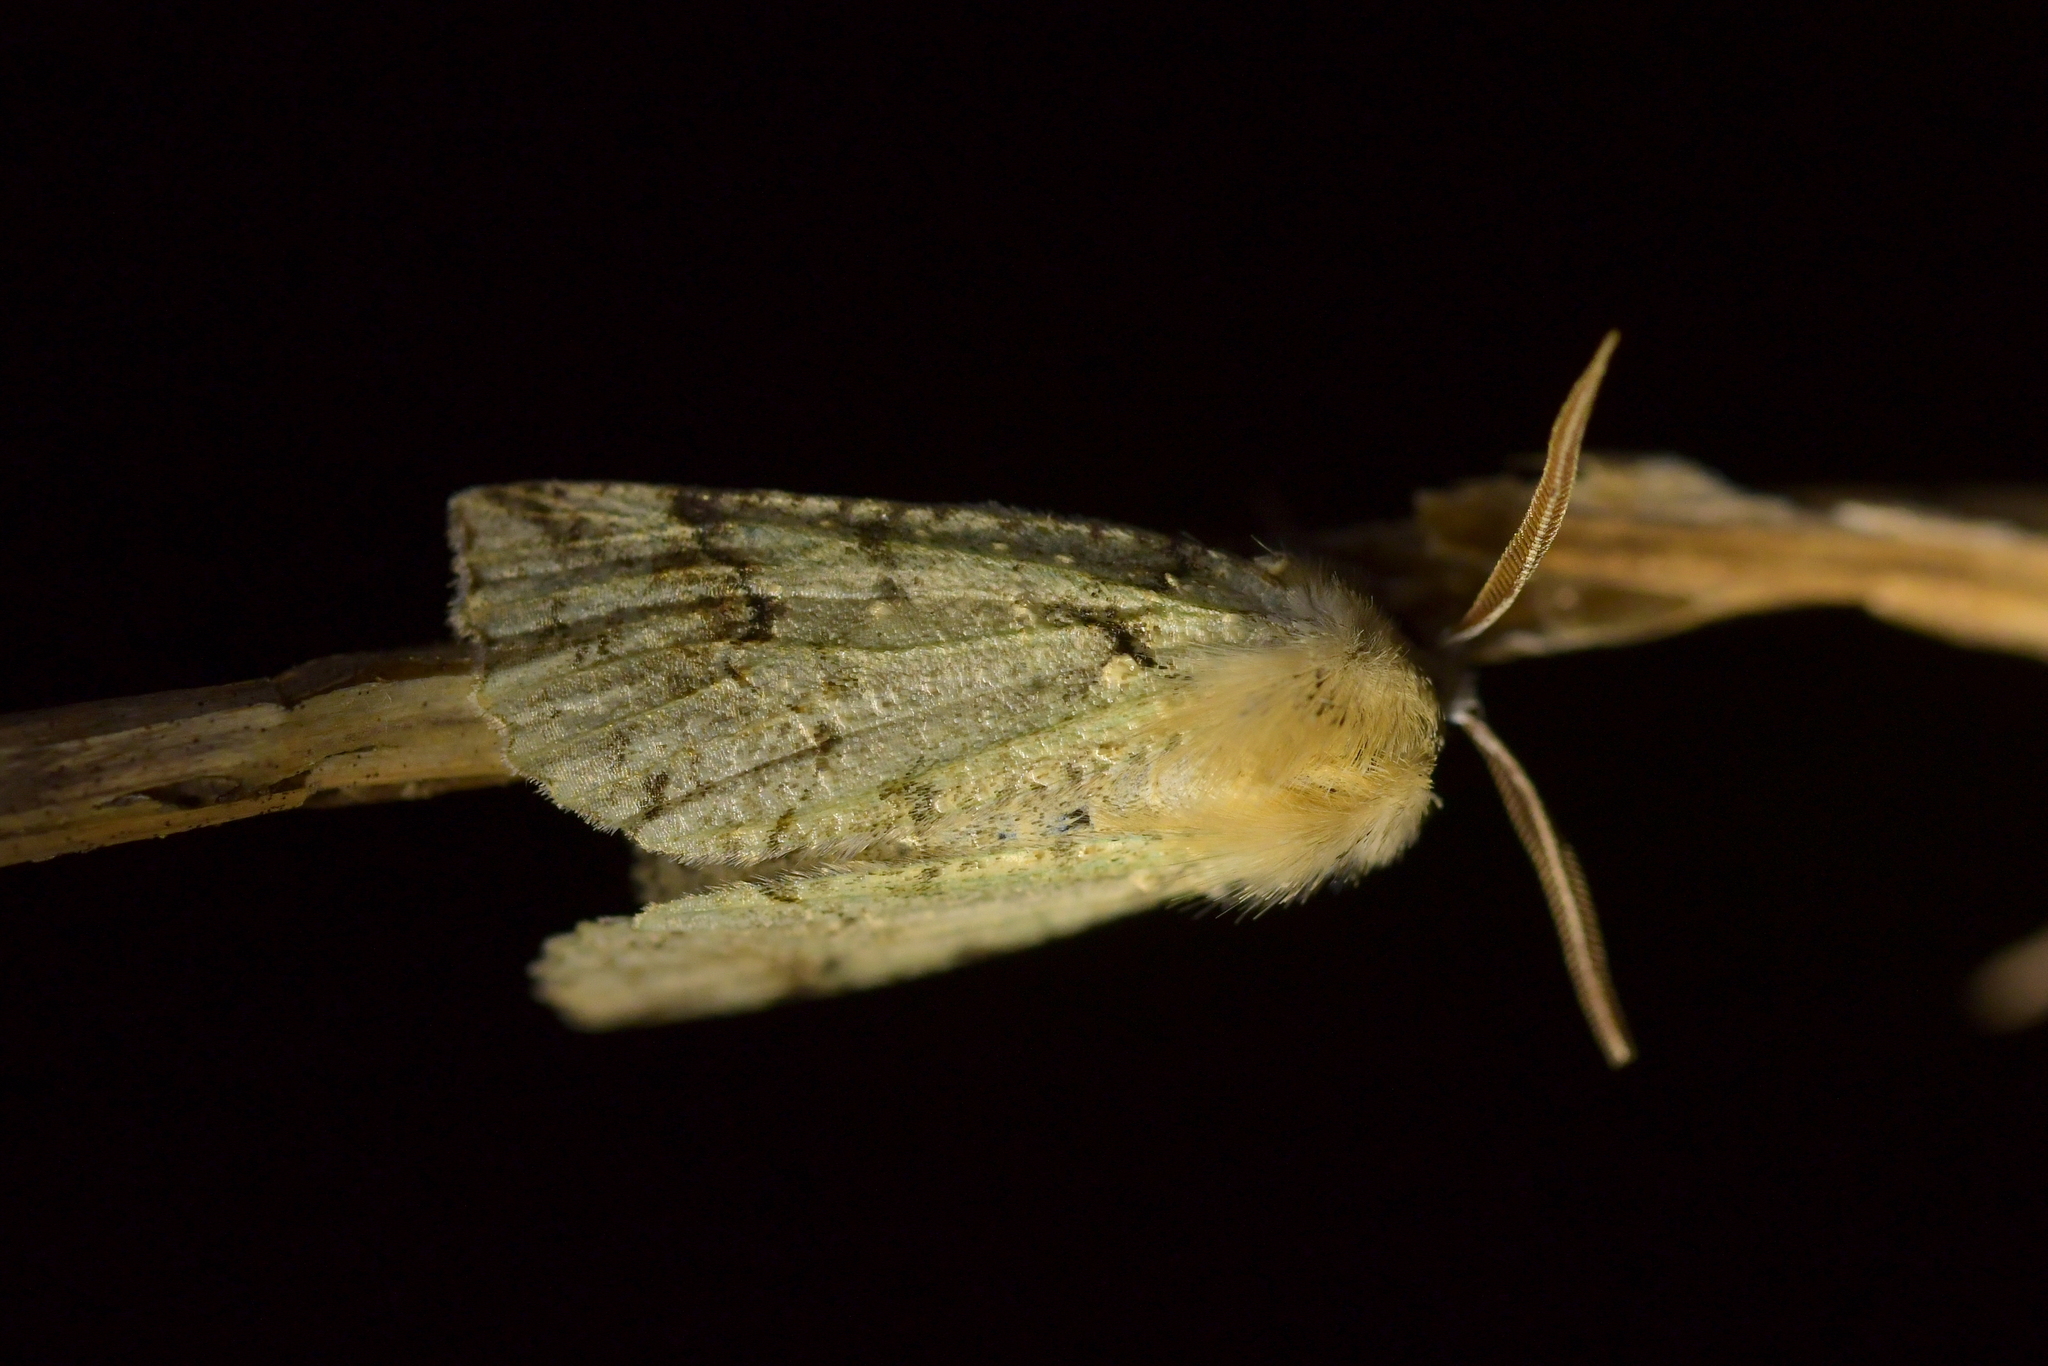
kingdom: Animalia
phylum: Arthropoda
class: Insecta
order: Lepidoptera
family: Geometridae
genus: Declana
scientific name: Declana floccosa
